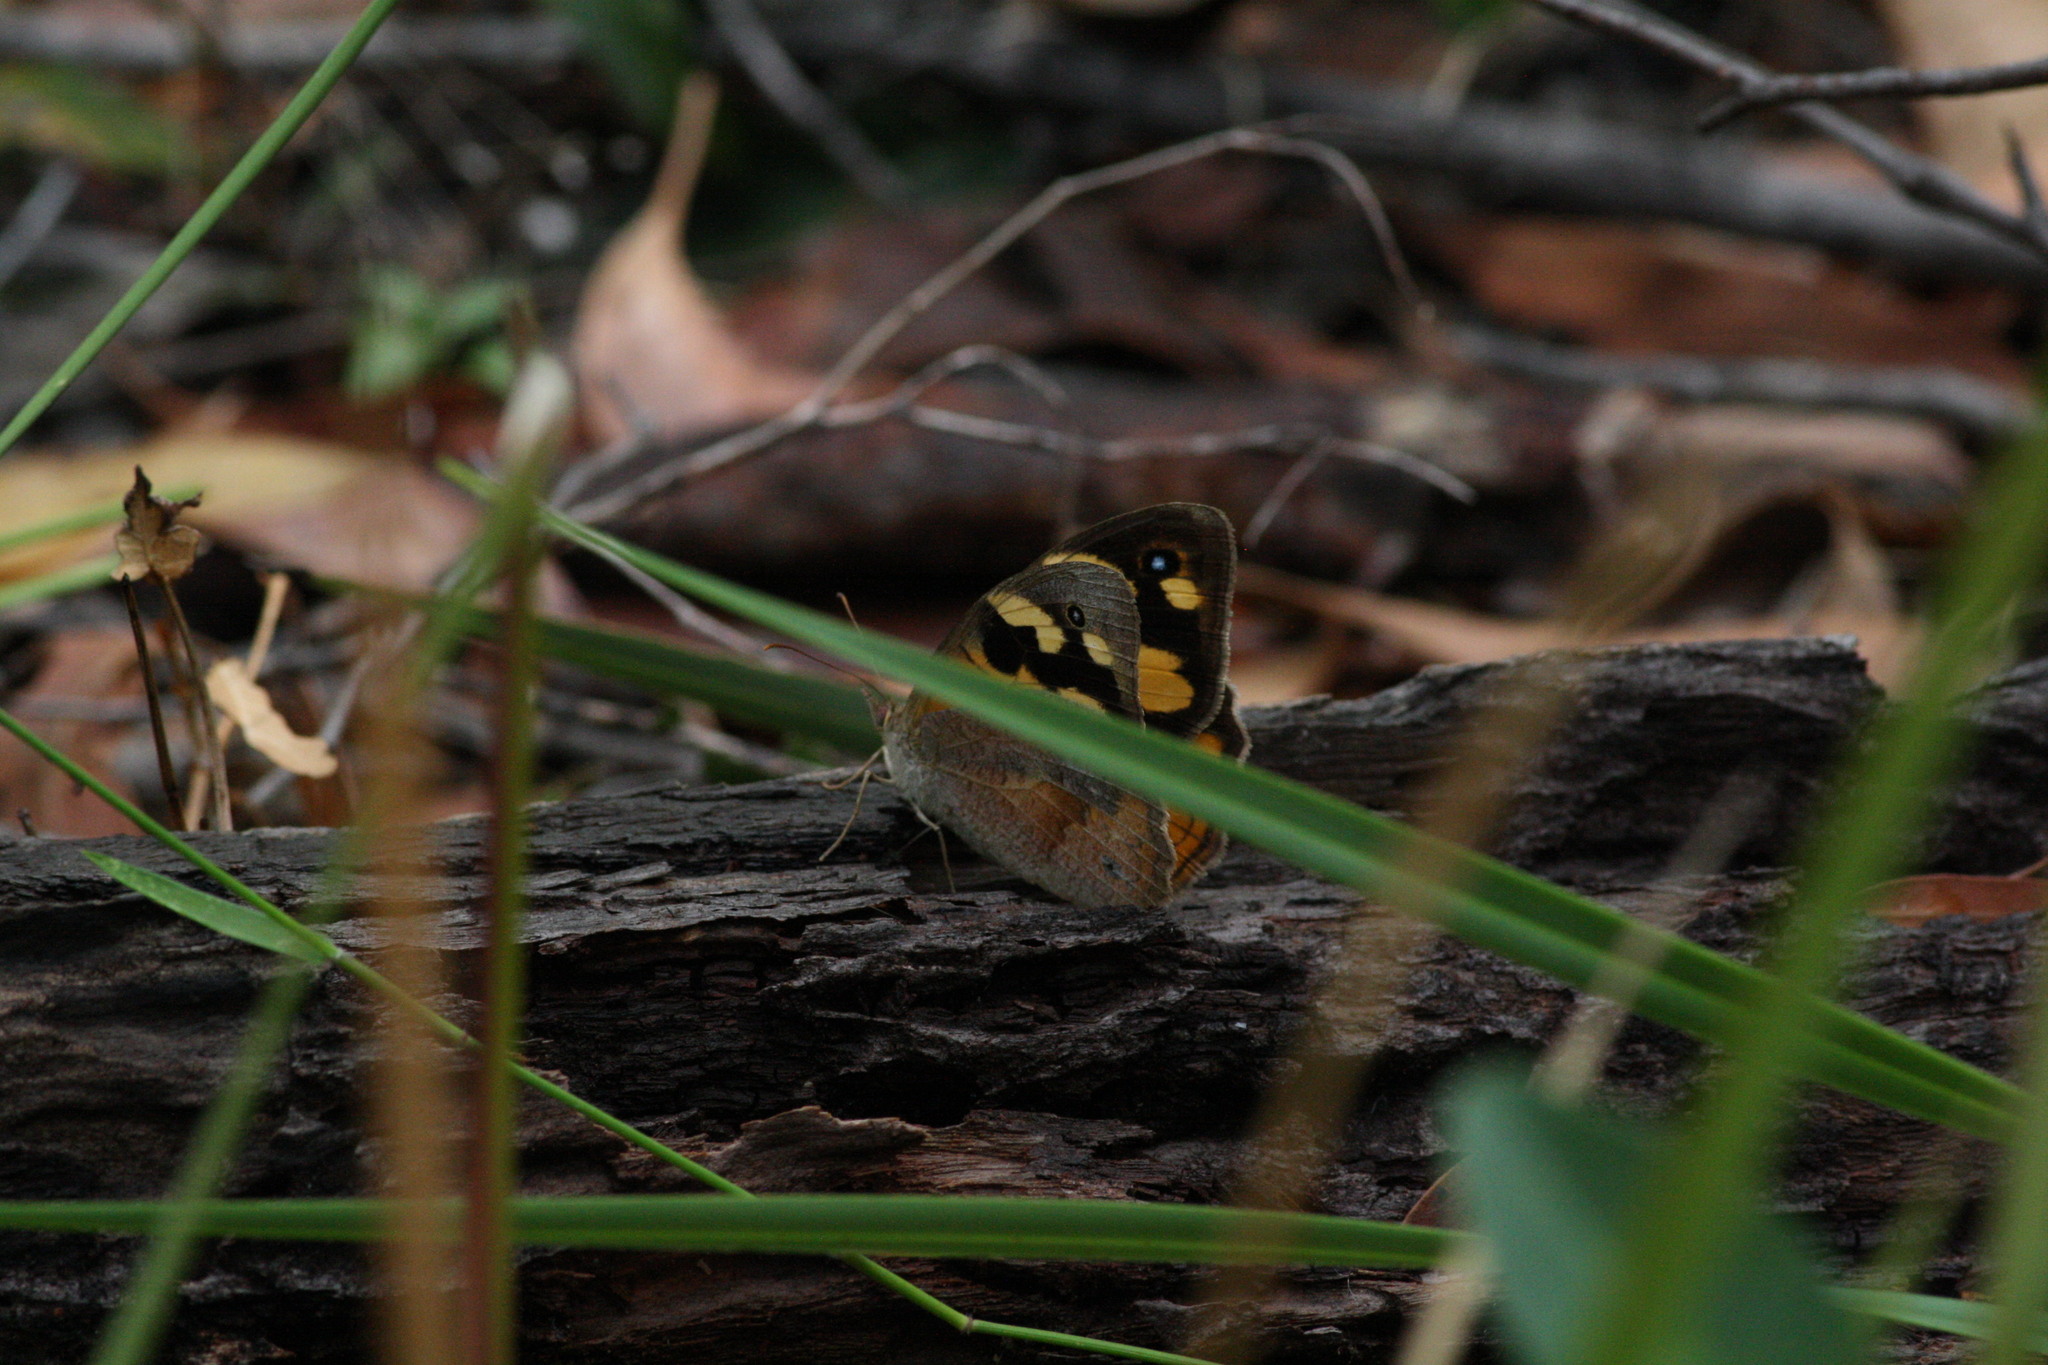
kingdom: Animalia
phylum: Arthropoda
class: Insecta
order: Lepidoptera
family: Nymphalidae
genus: Heteronympha
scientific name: Heteronympha merope
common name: Common brown
